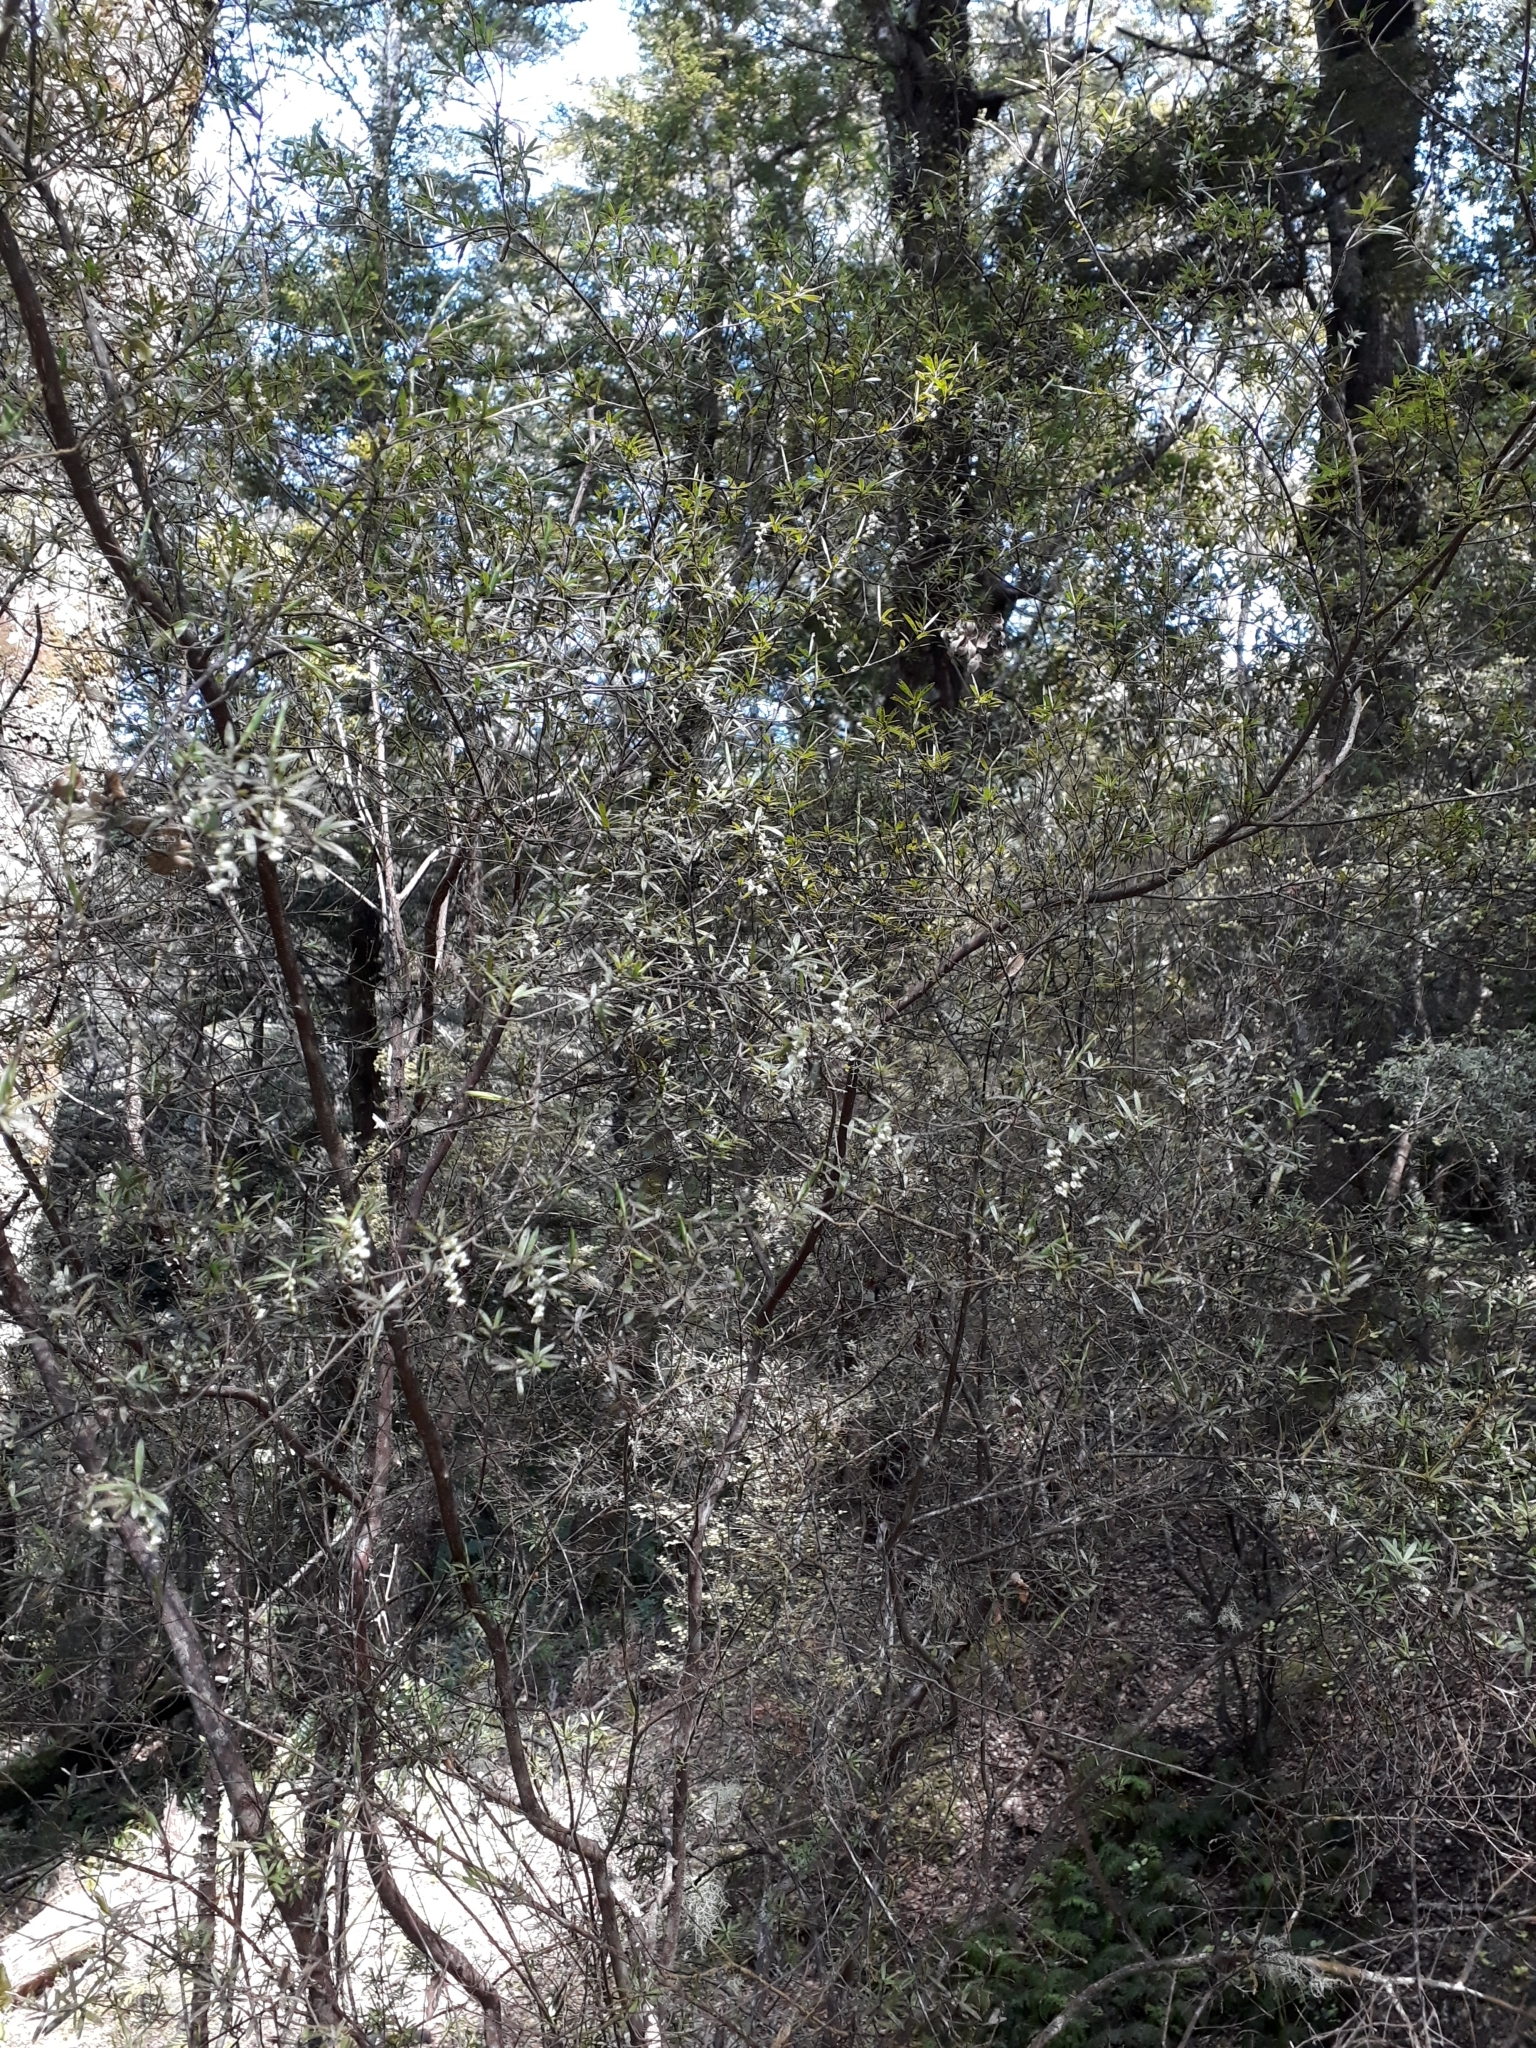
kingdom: Plantae
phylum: Tracheophyta
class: Magnoliopsida
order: Ericales
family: Ericaceae
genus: Leucopogon
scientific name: Leucopogon fasciculatus
